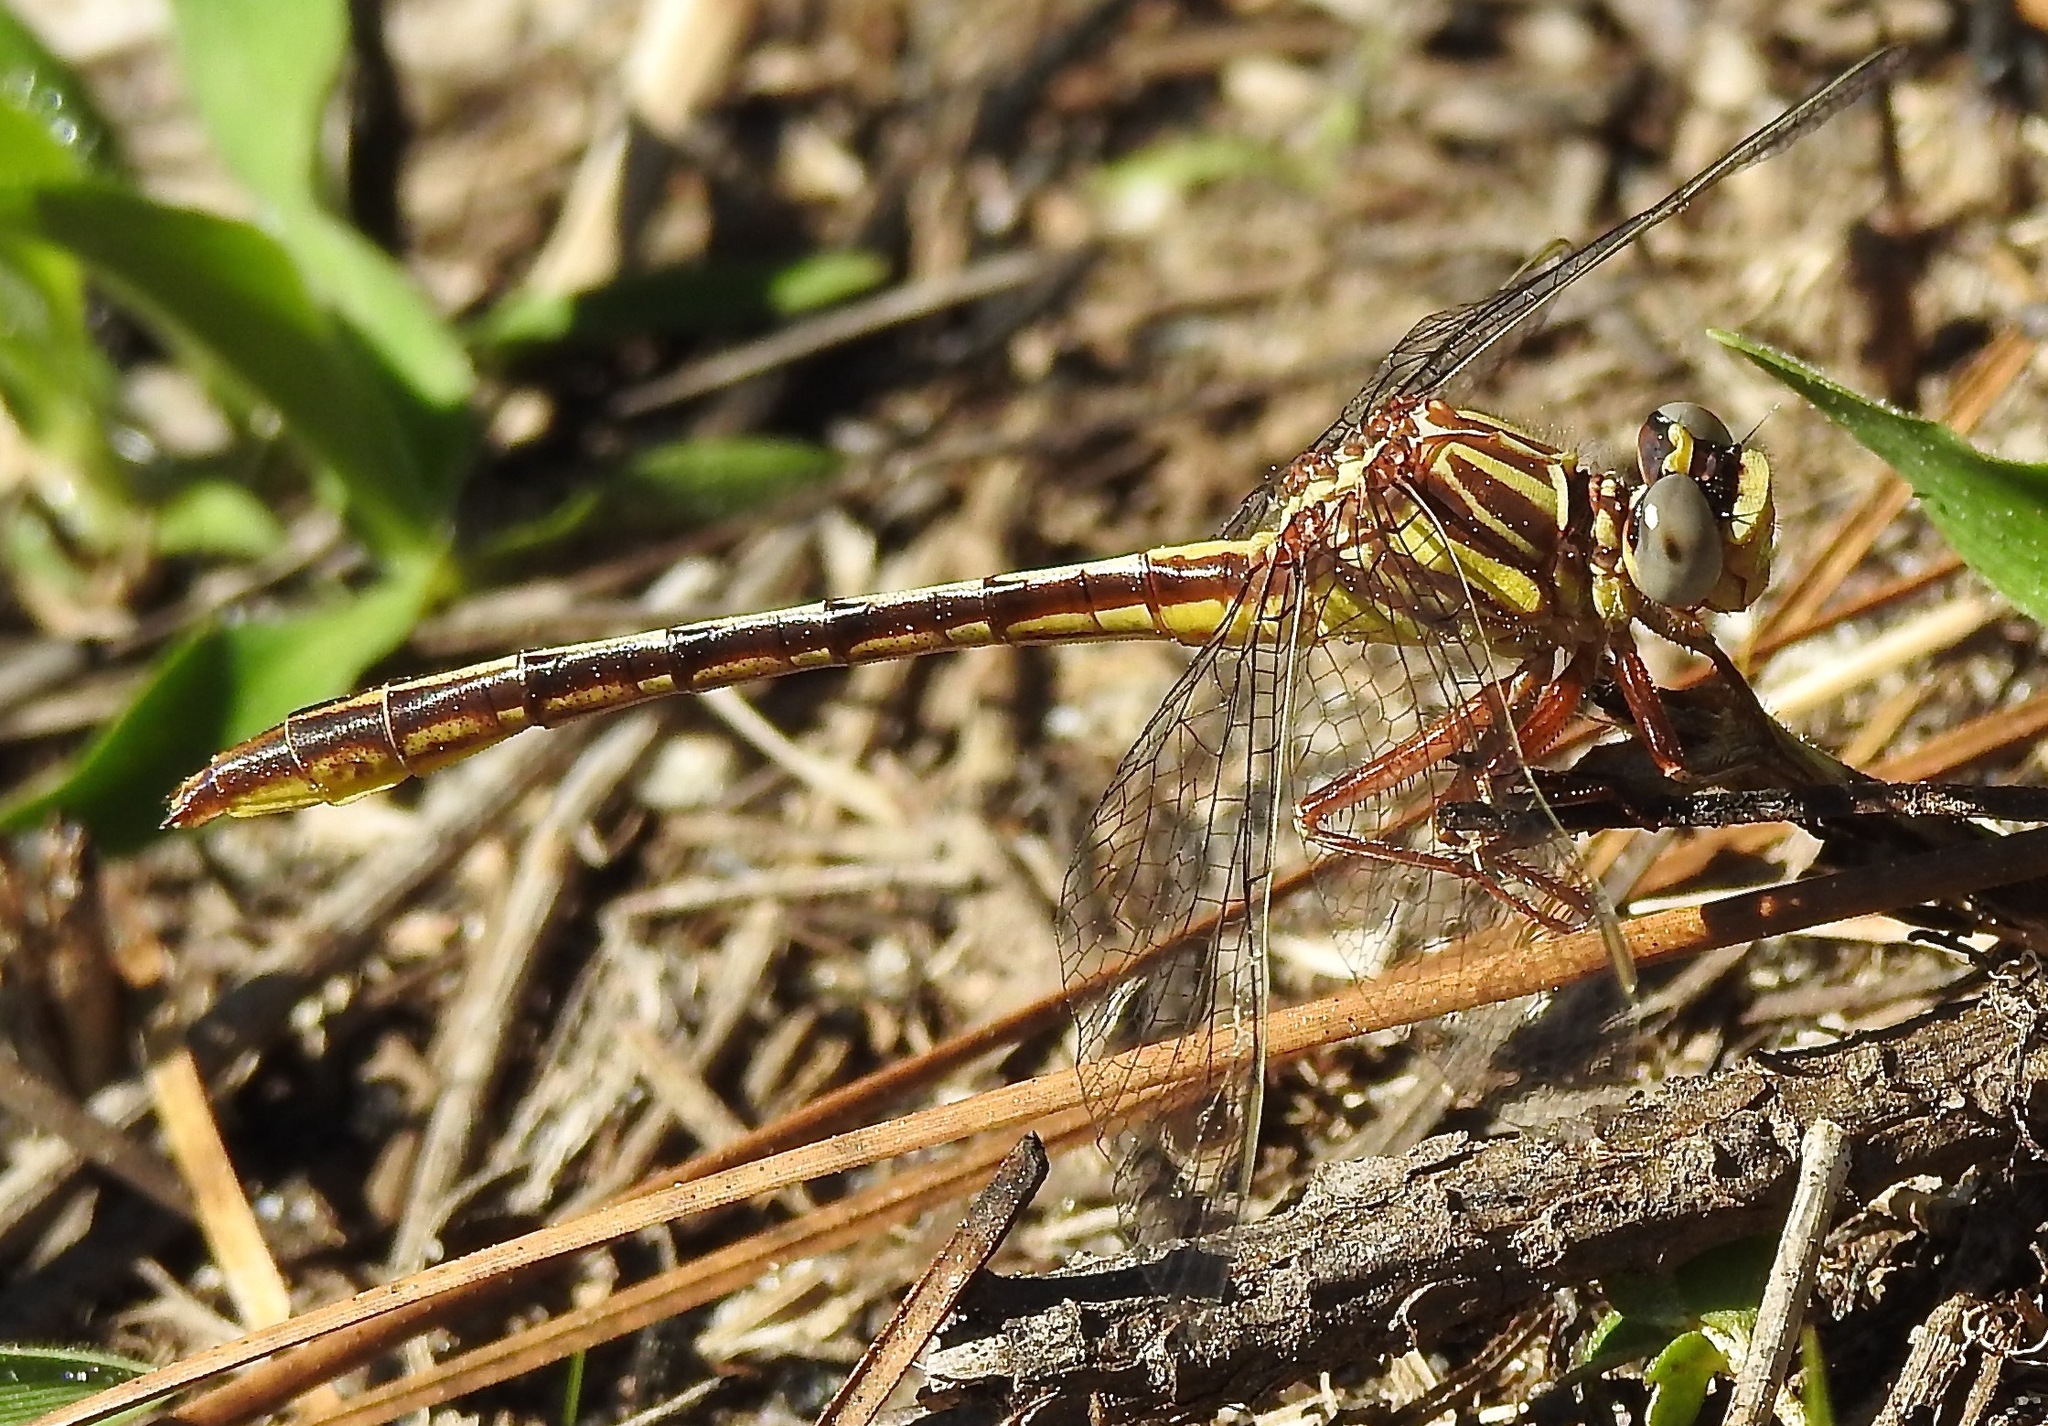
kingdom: Animalia
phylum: Arthropoda
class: Insecta
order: Odonata
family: Gomphidae
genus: Phanogomphus
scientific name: Phanogomphus minutus
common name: Cypress clubtail
